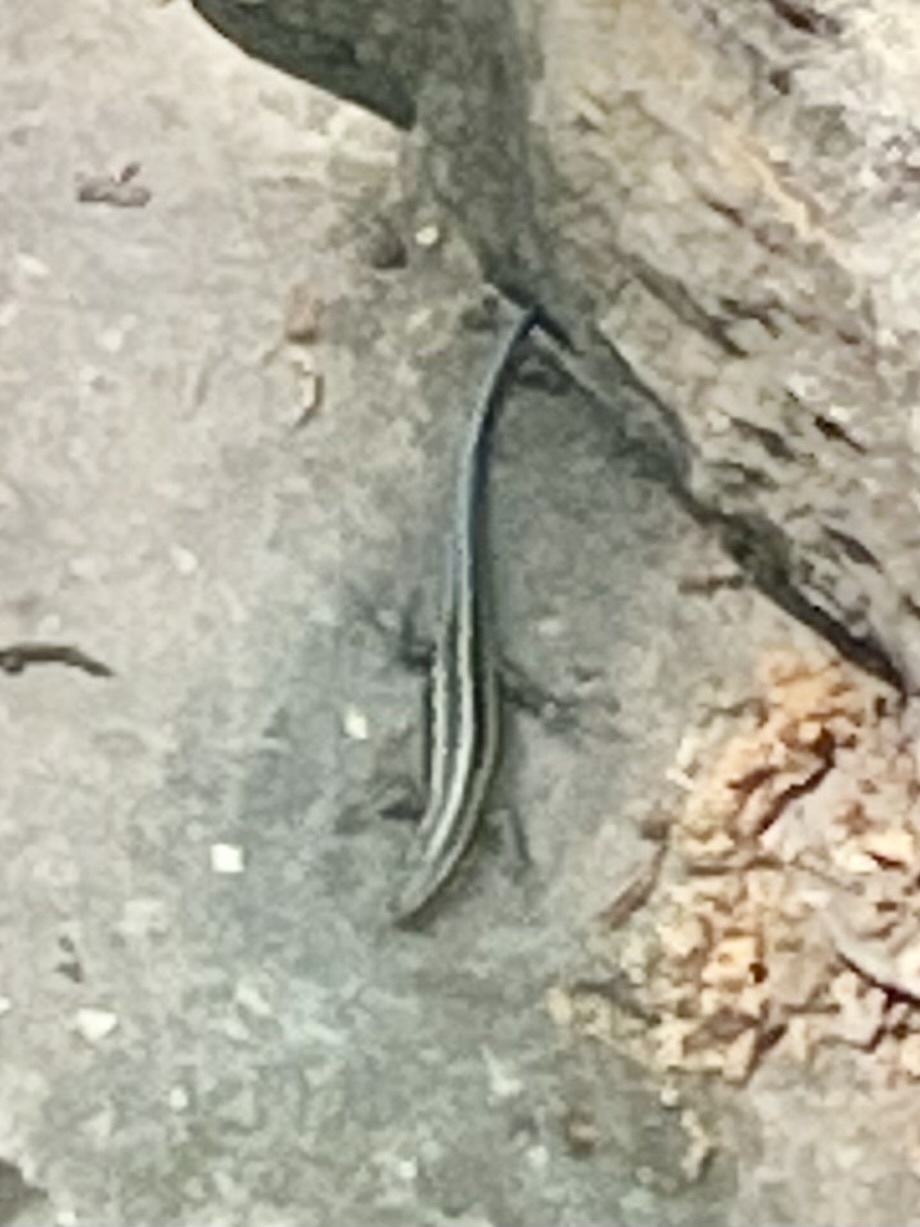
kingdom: Animalia
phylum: Chordata
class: Squamata
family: Scincidae
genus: Plestiodon
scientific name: Plestiodon fasciatus
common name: Five-lined skink
